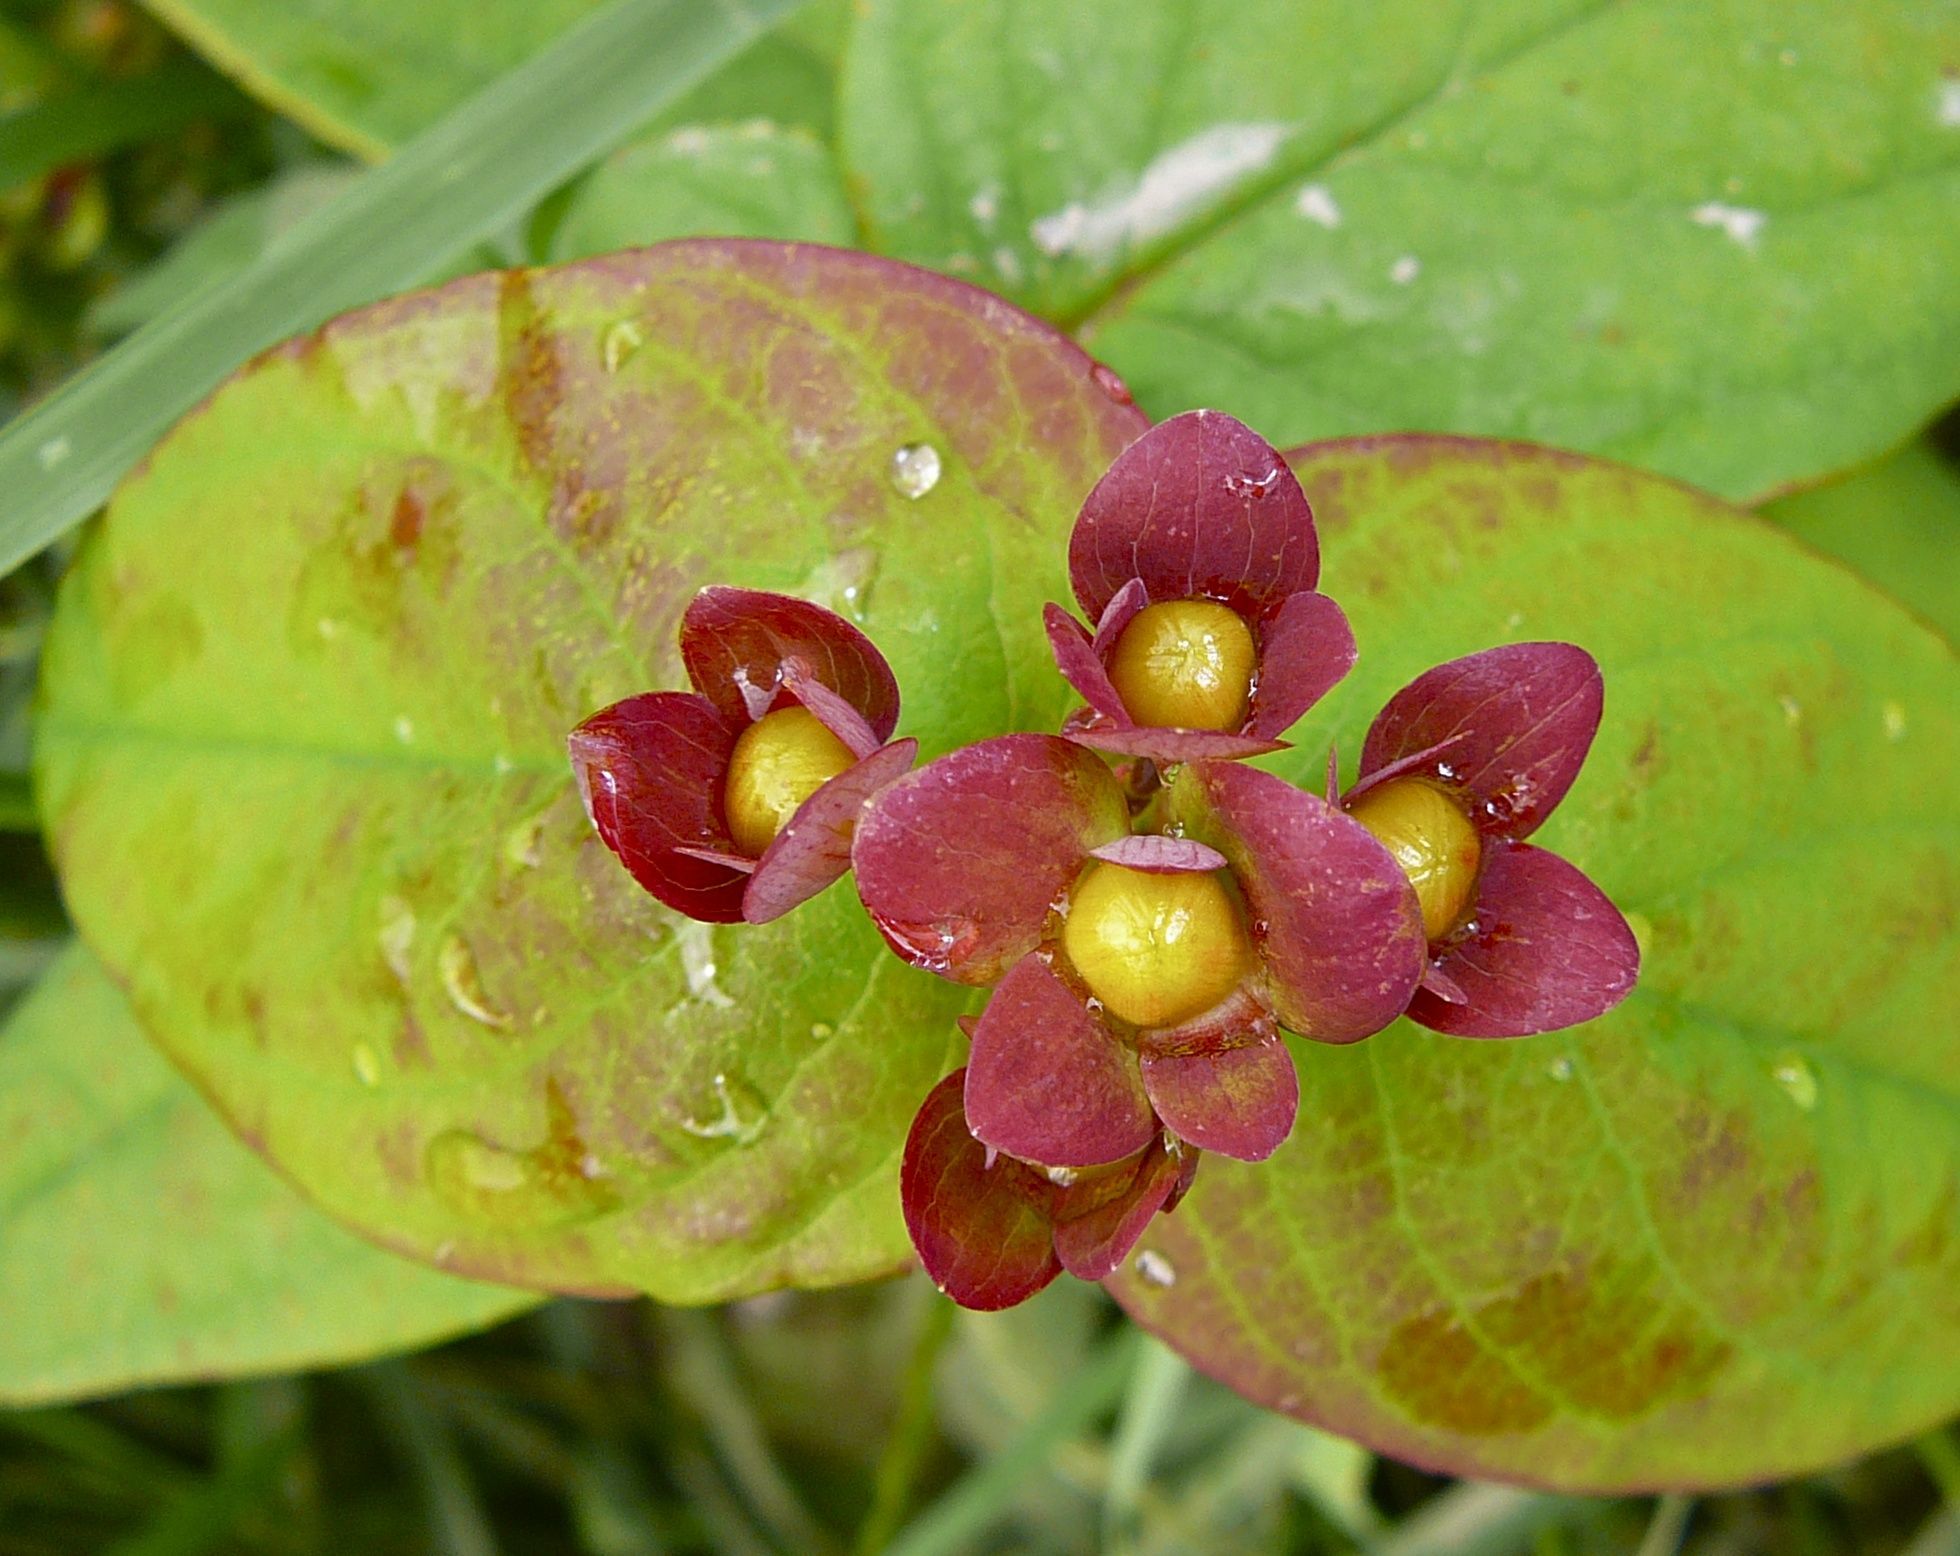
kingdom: Plantae
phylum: Tracheophyta
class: Magnoliopsida
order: Malpighiales
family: Hypericaceae
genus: Hypericum
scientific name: Hypericum androsaemum
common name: Sweet-amber
